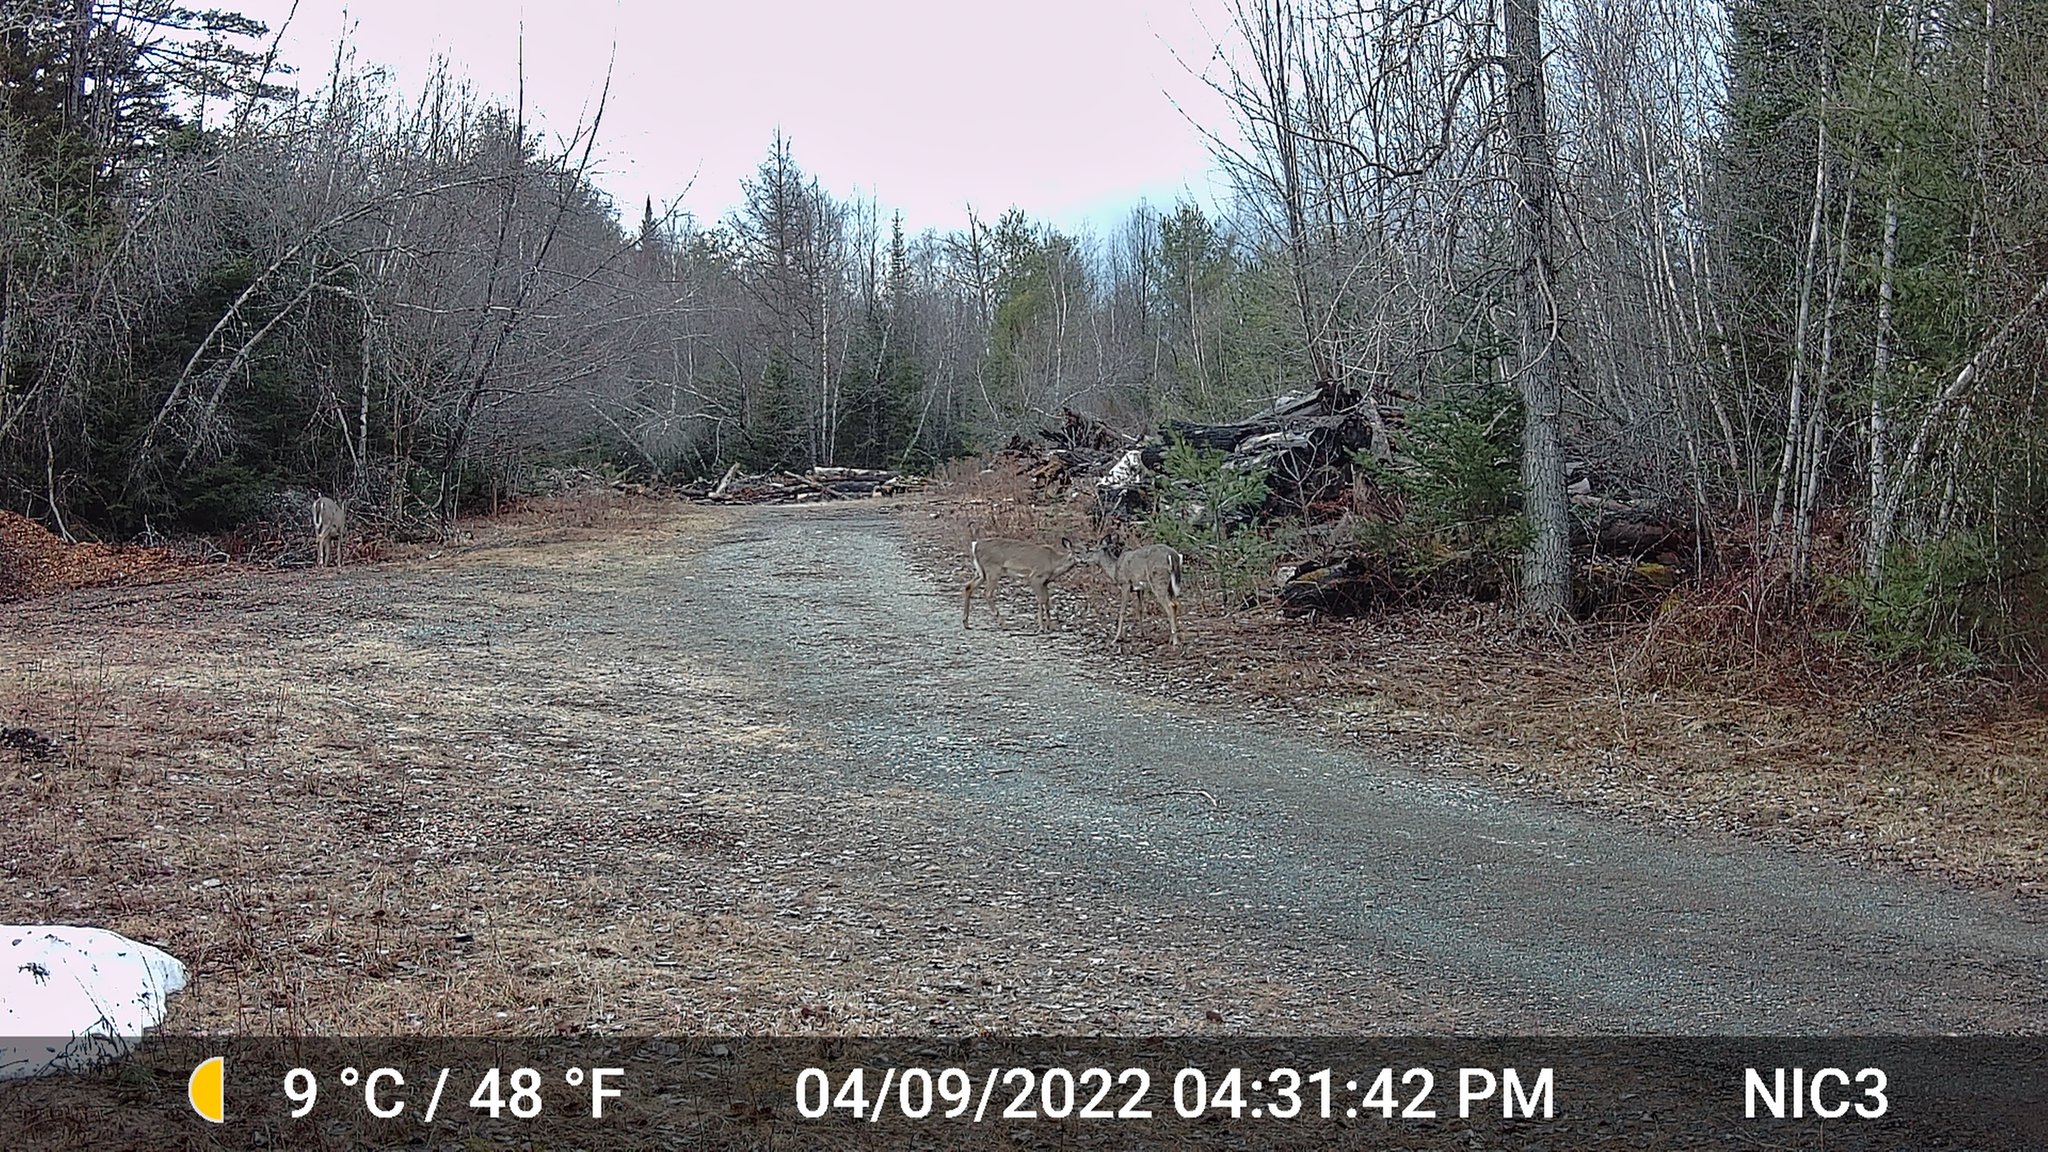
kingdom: Animalia
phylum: Chordata
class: Mammalia
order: Artiodactyla
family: Cervidae
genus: Odocoileus
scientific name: Odocoileus virginianus
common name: White-tailed deer
